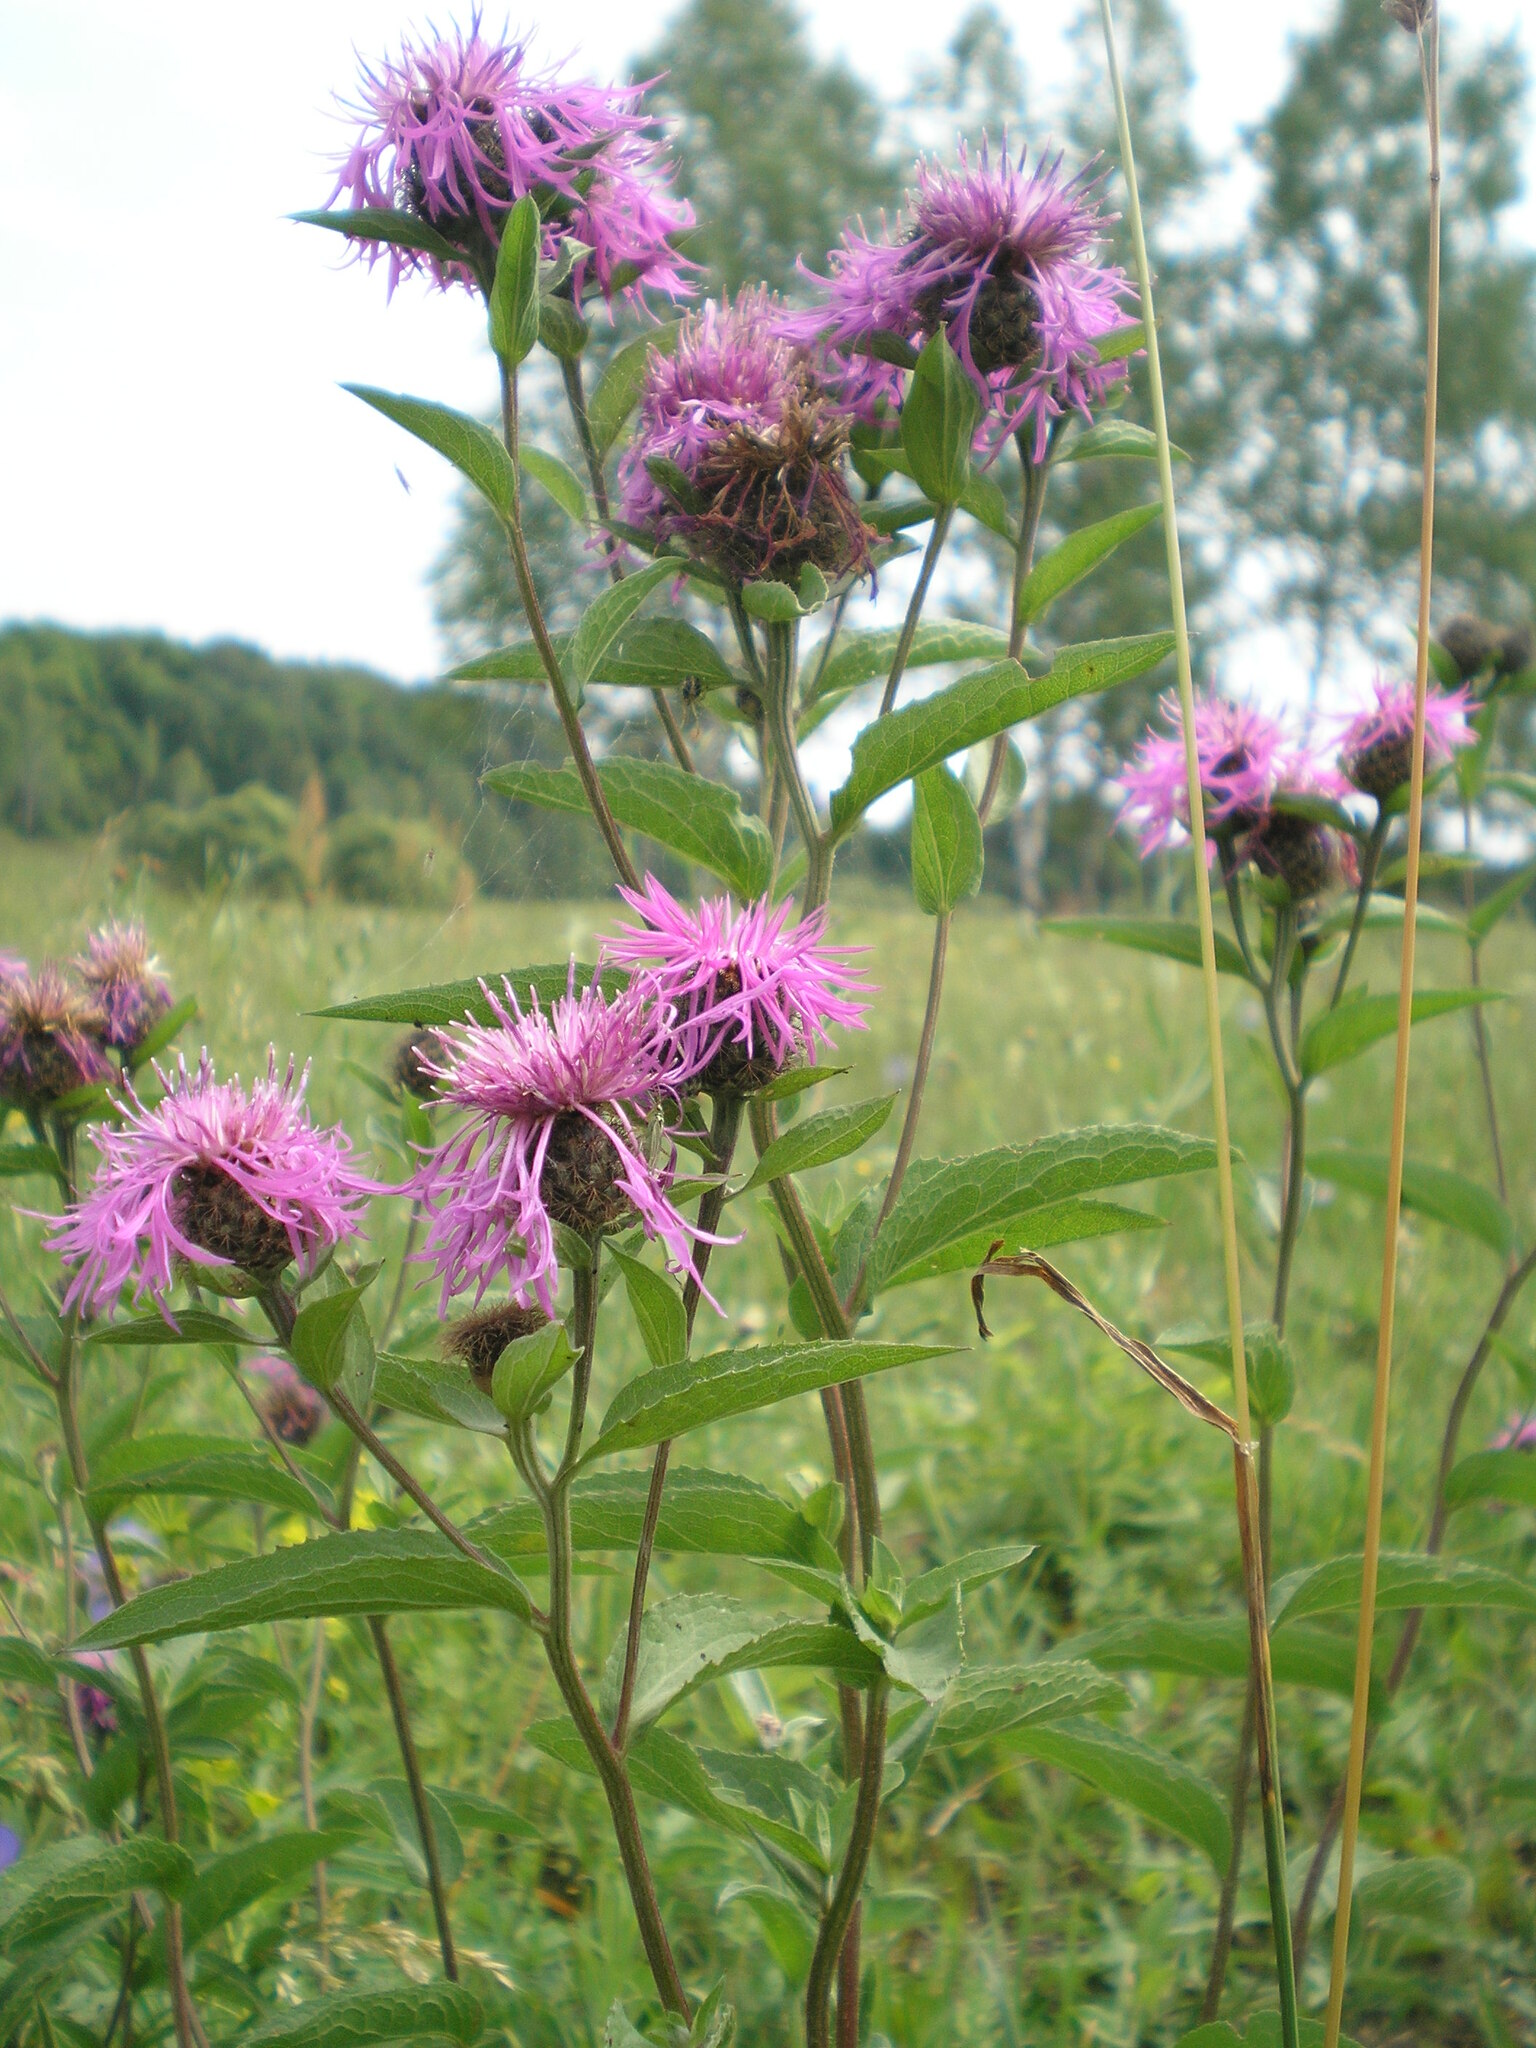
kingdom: Plantae
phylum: Tracheophyta
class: Magnoliopsida
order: Asterales
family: Asteraceae
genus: Centaurea
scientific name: Centaurea phrygia
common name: Wig knapweed
